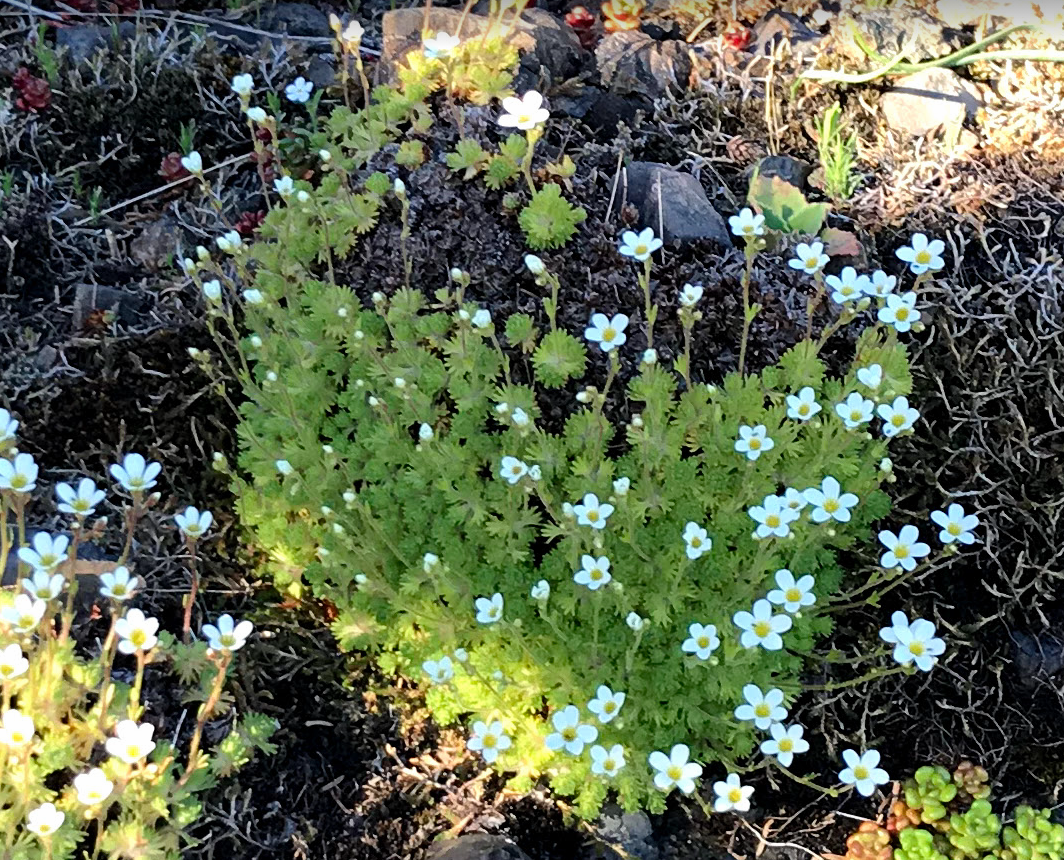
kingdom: Plantae
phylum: Tracheophyta
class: Magnoliopsida
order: Saxifragales
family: Saxifragaceae
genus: Saxifraga
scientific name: Saxifraga cespitosa
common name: Tufted saxifrage
